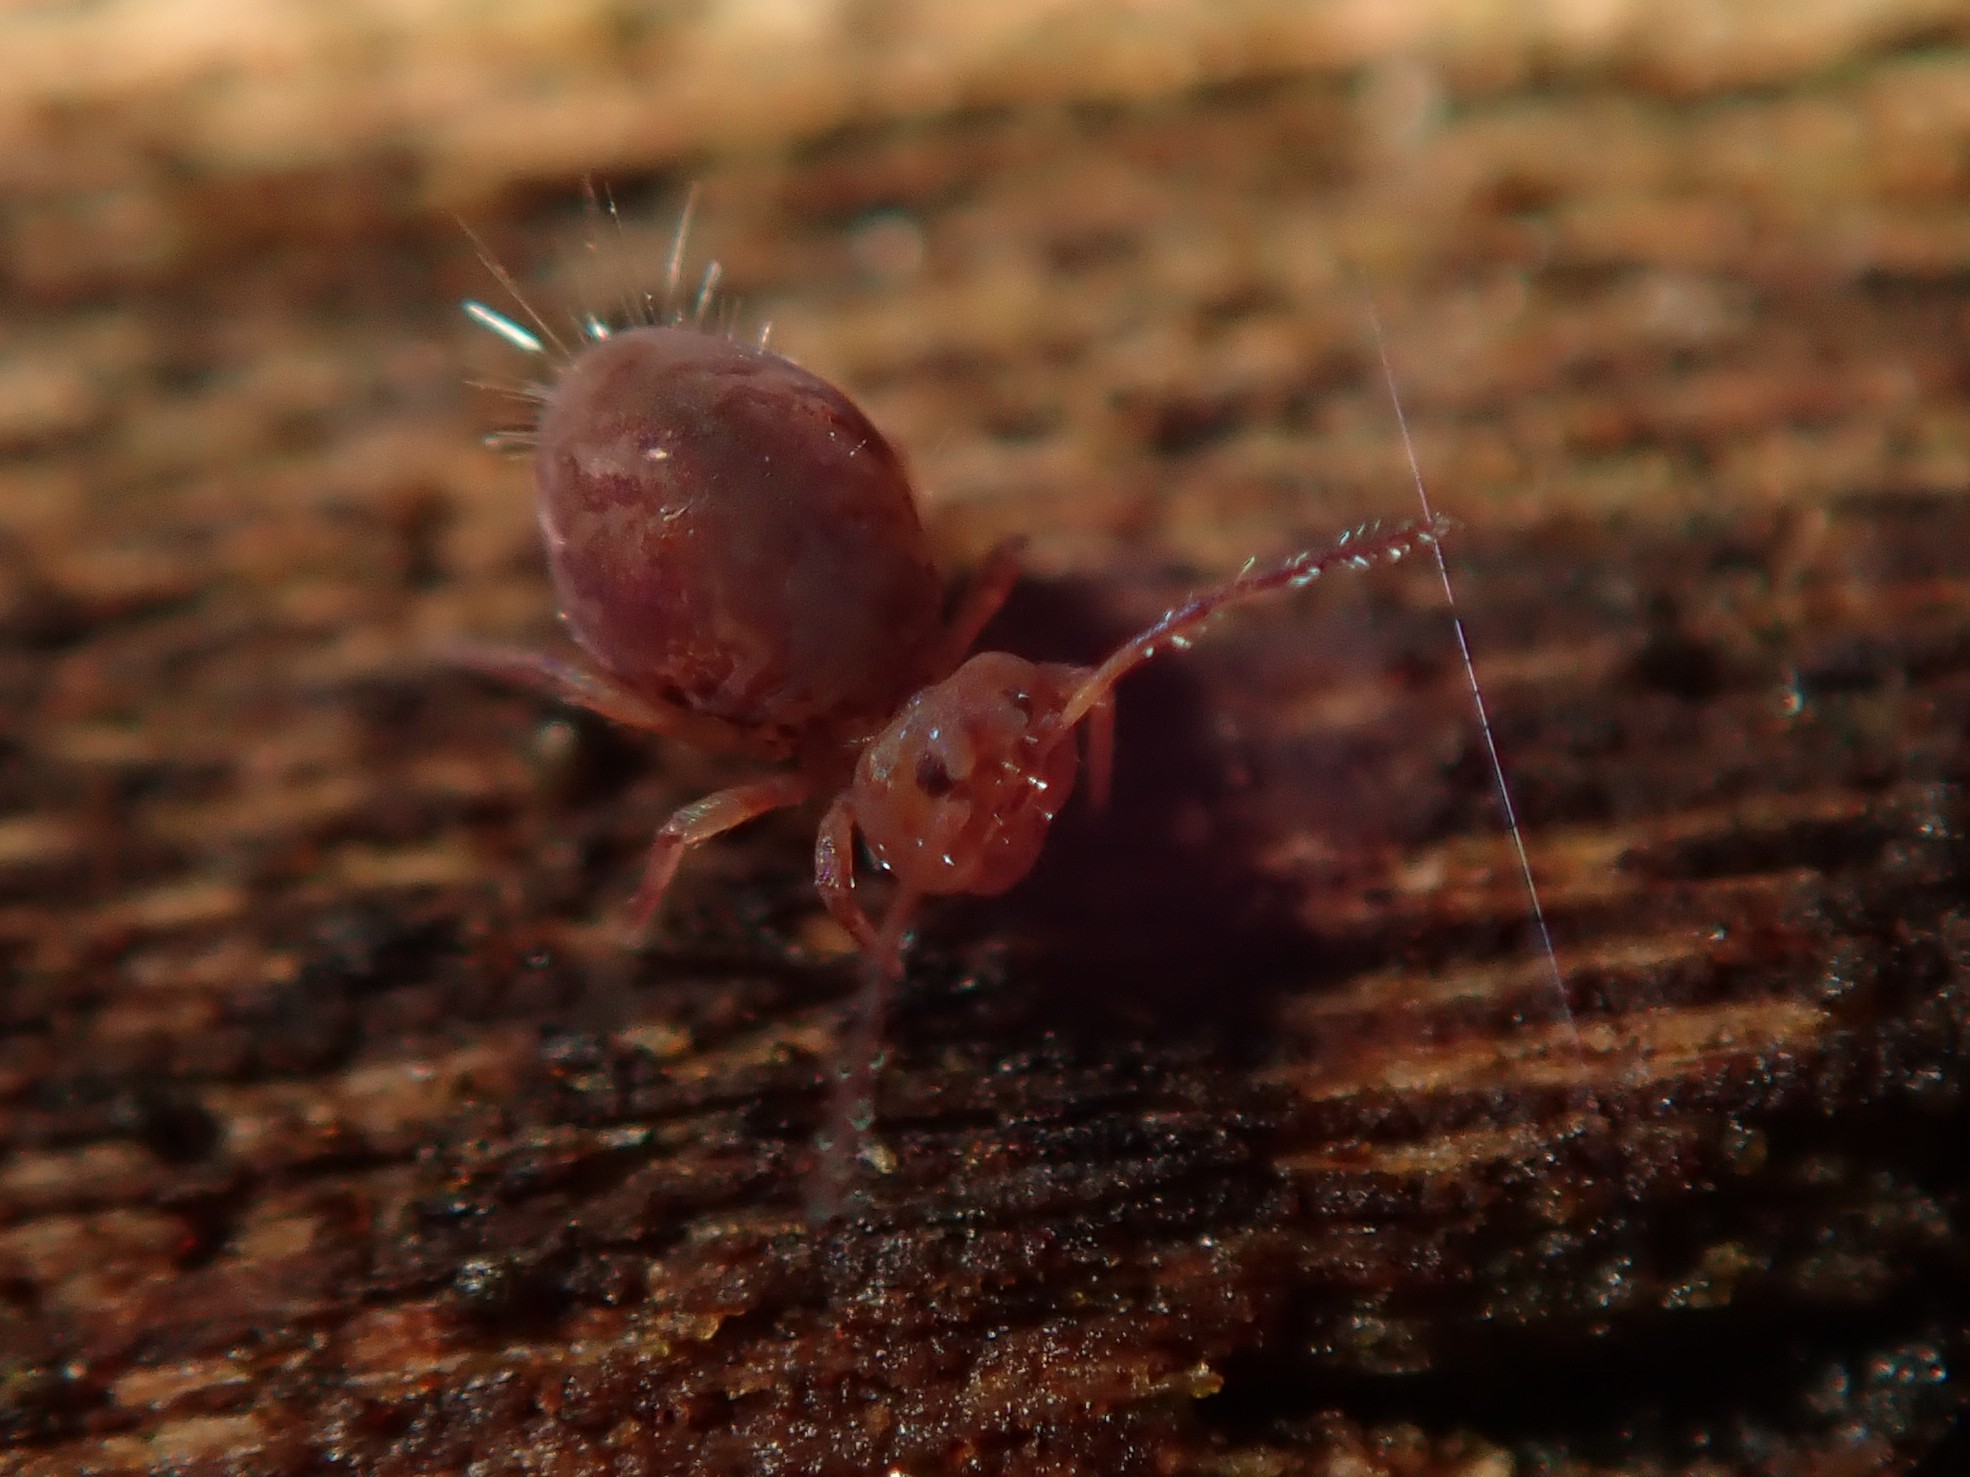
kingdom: Animalia
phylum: Arthropoda
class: Collembola
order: Symphypleona
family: Dicyrtomidae
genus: Dicyrtoma
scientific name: Dicyrtoma fusca
